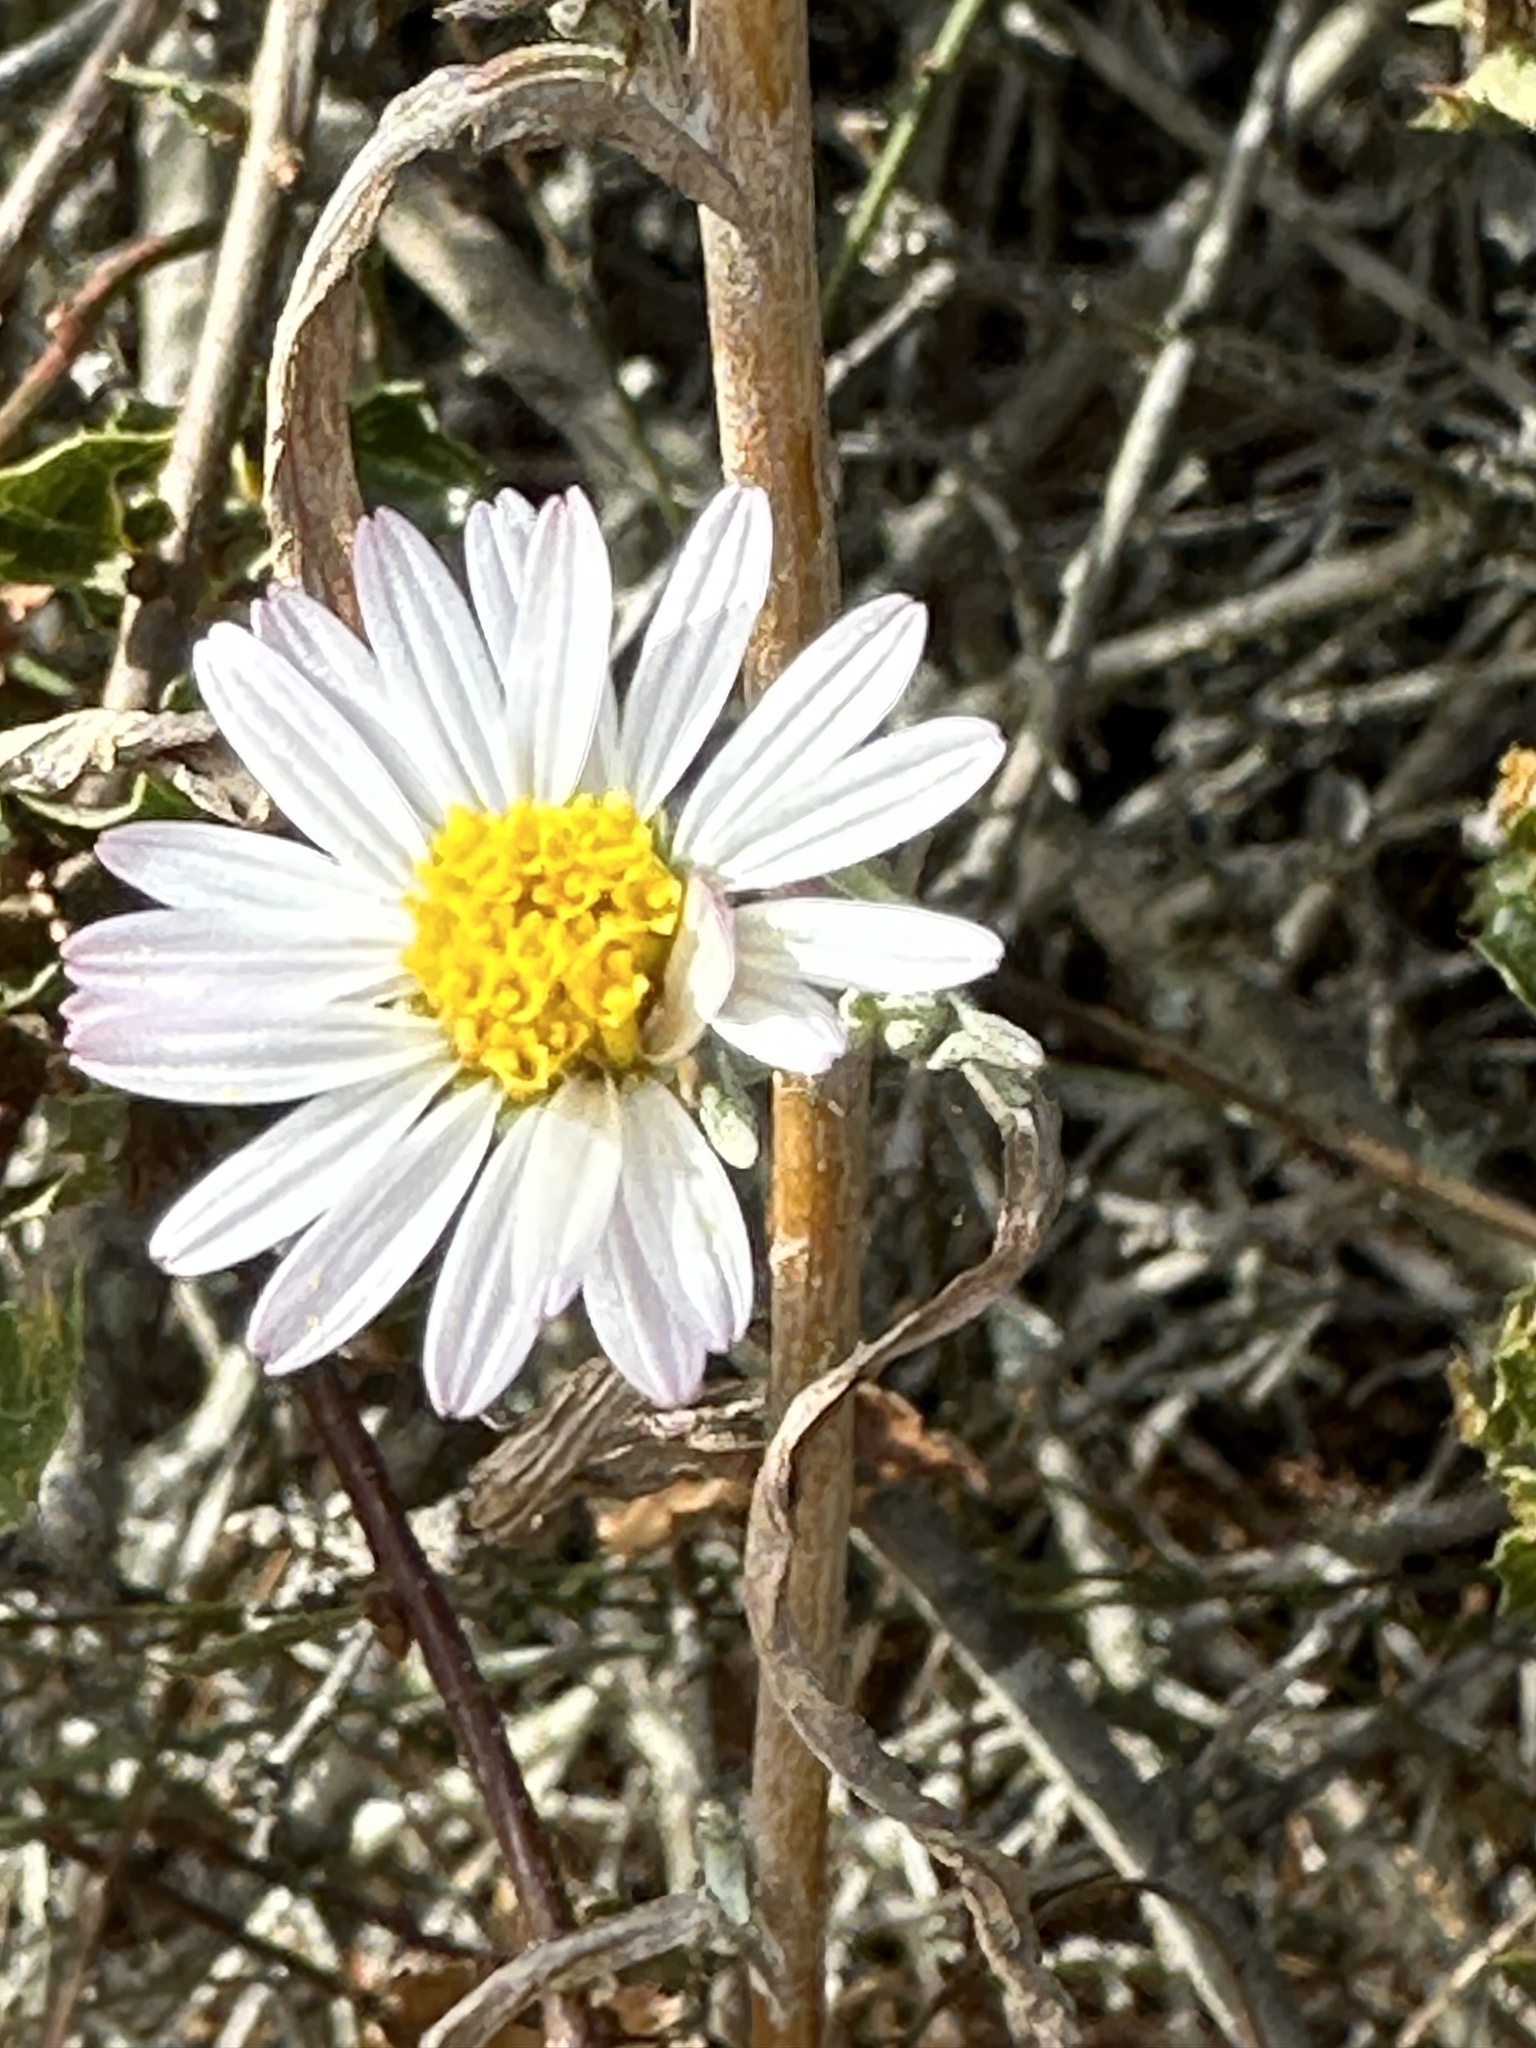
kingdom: Plantae
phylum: Tracheophyta
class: Magnoliopsida
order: Asterales
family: Asteraceae
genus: Corethrogyne
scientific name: Corethrogyne filaginifolia
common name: Sand-aster
